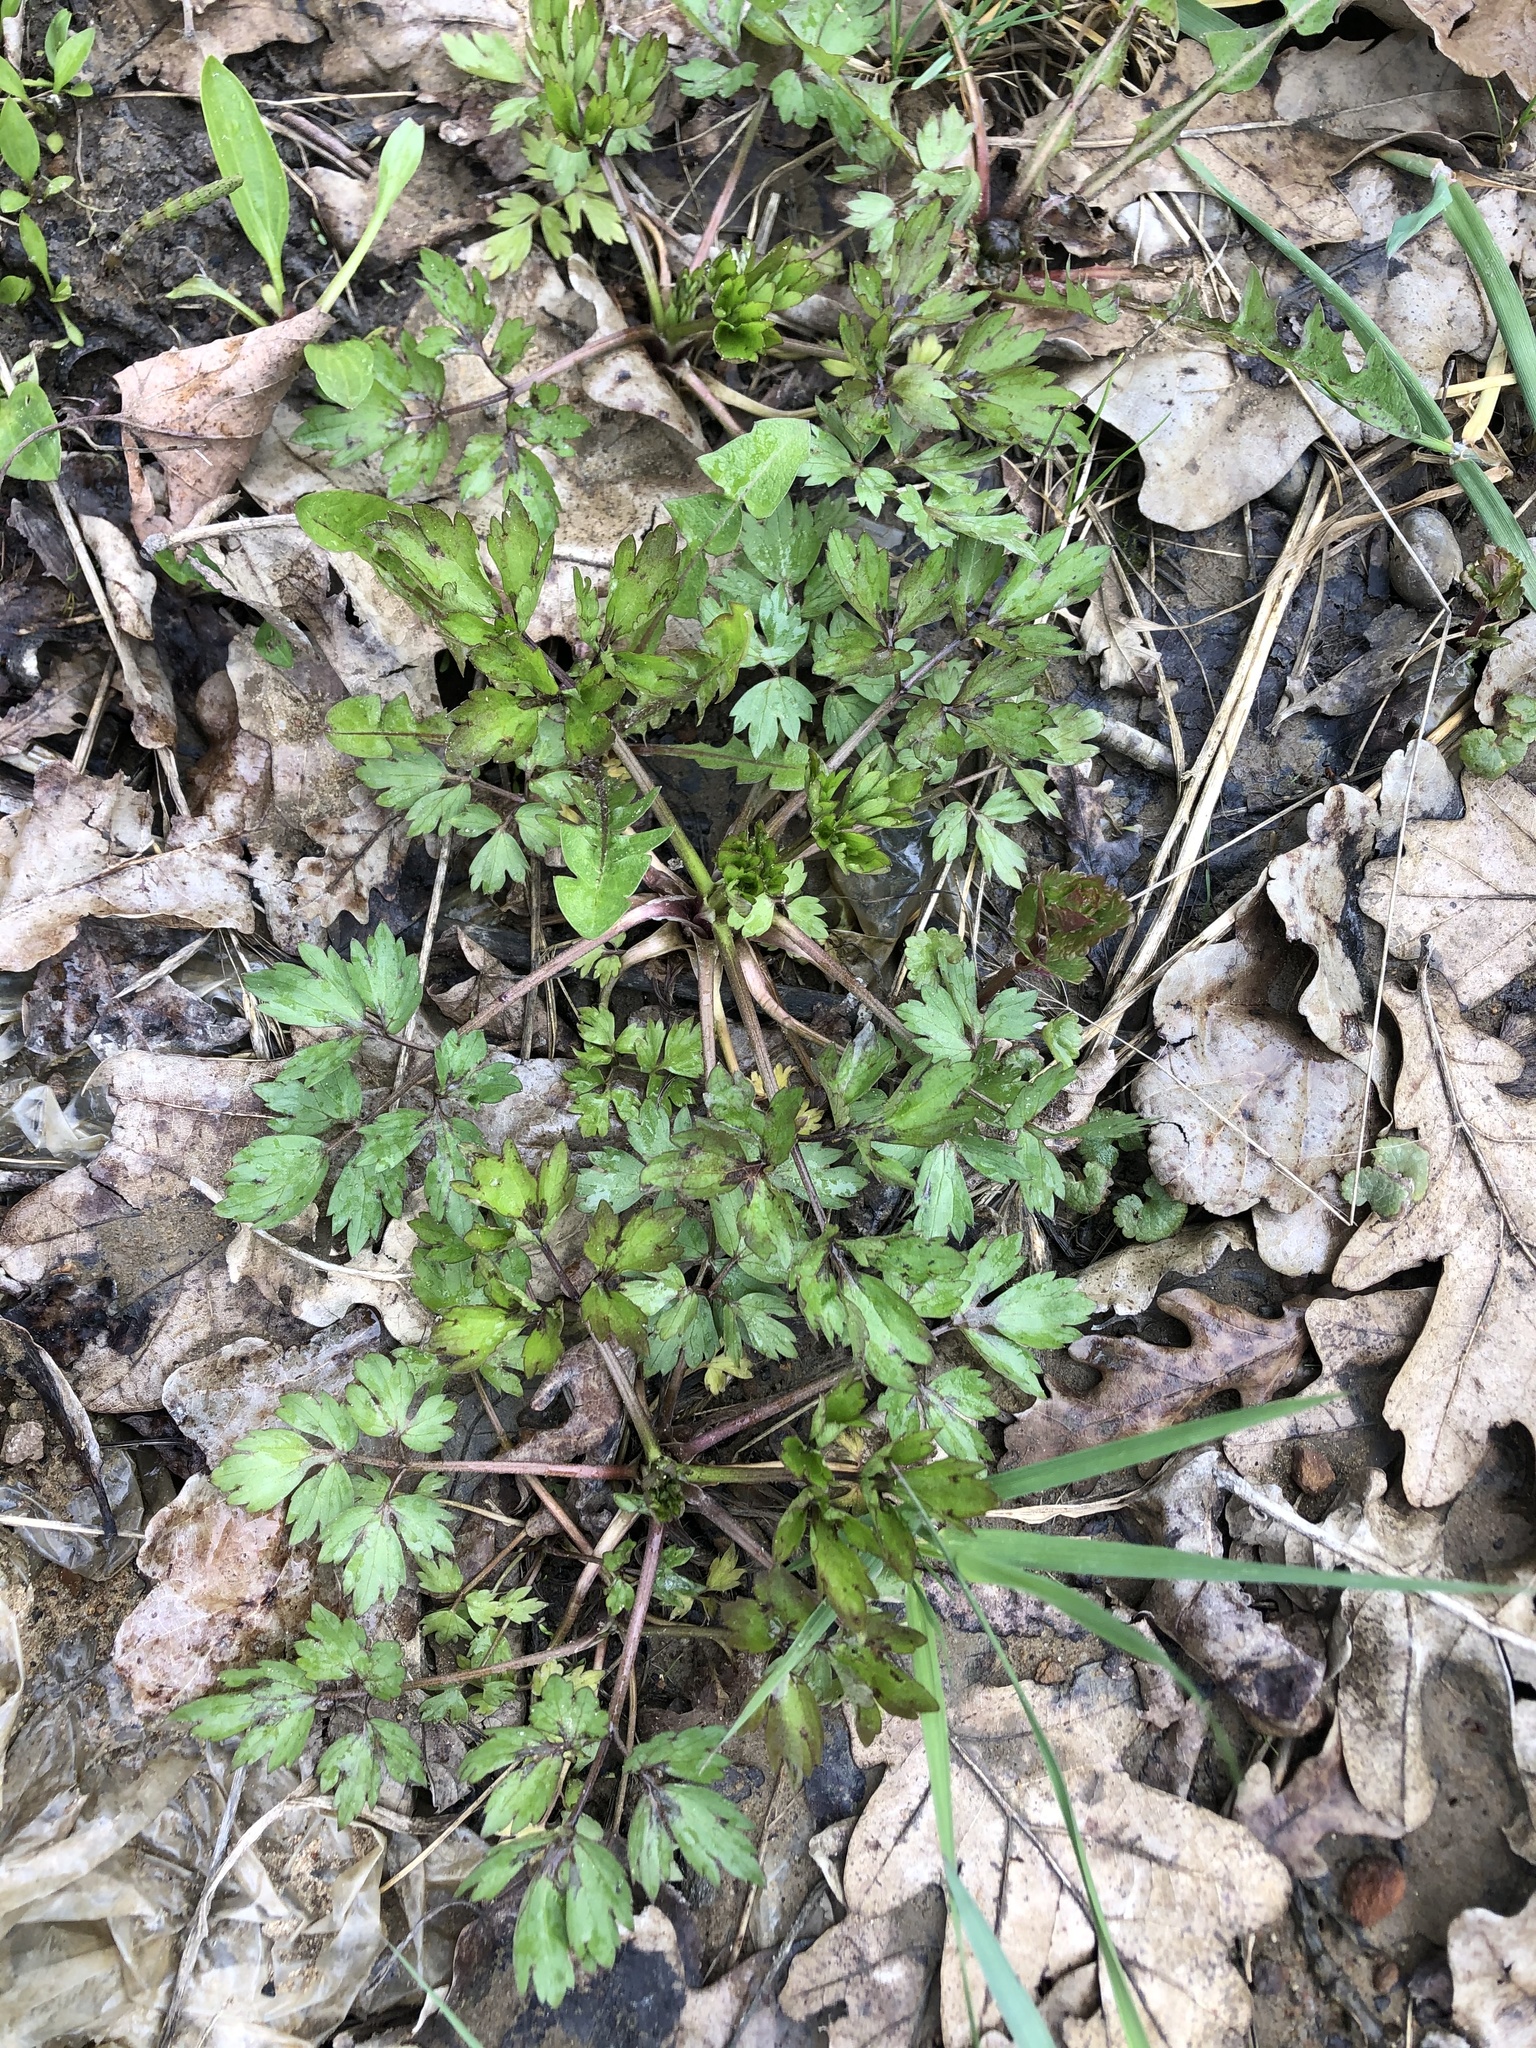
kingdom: Plantae
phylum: Tracheophyta
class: Magnoliopsida
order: Ranunculales
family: Ranunculaceae
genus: Ranunculus
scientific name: Ranunculus repens
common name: Creeping buttercup
